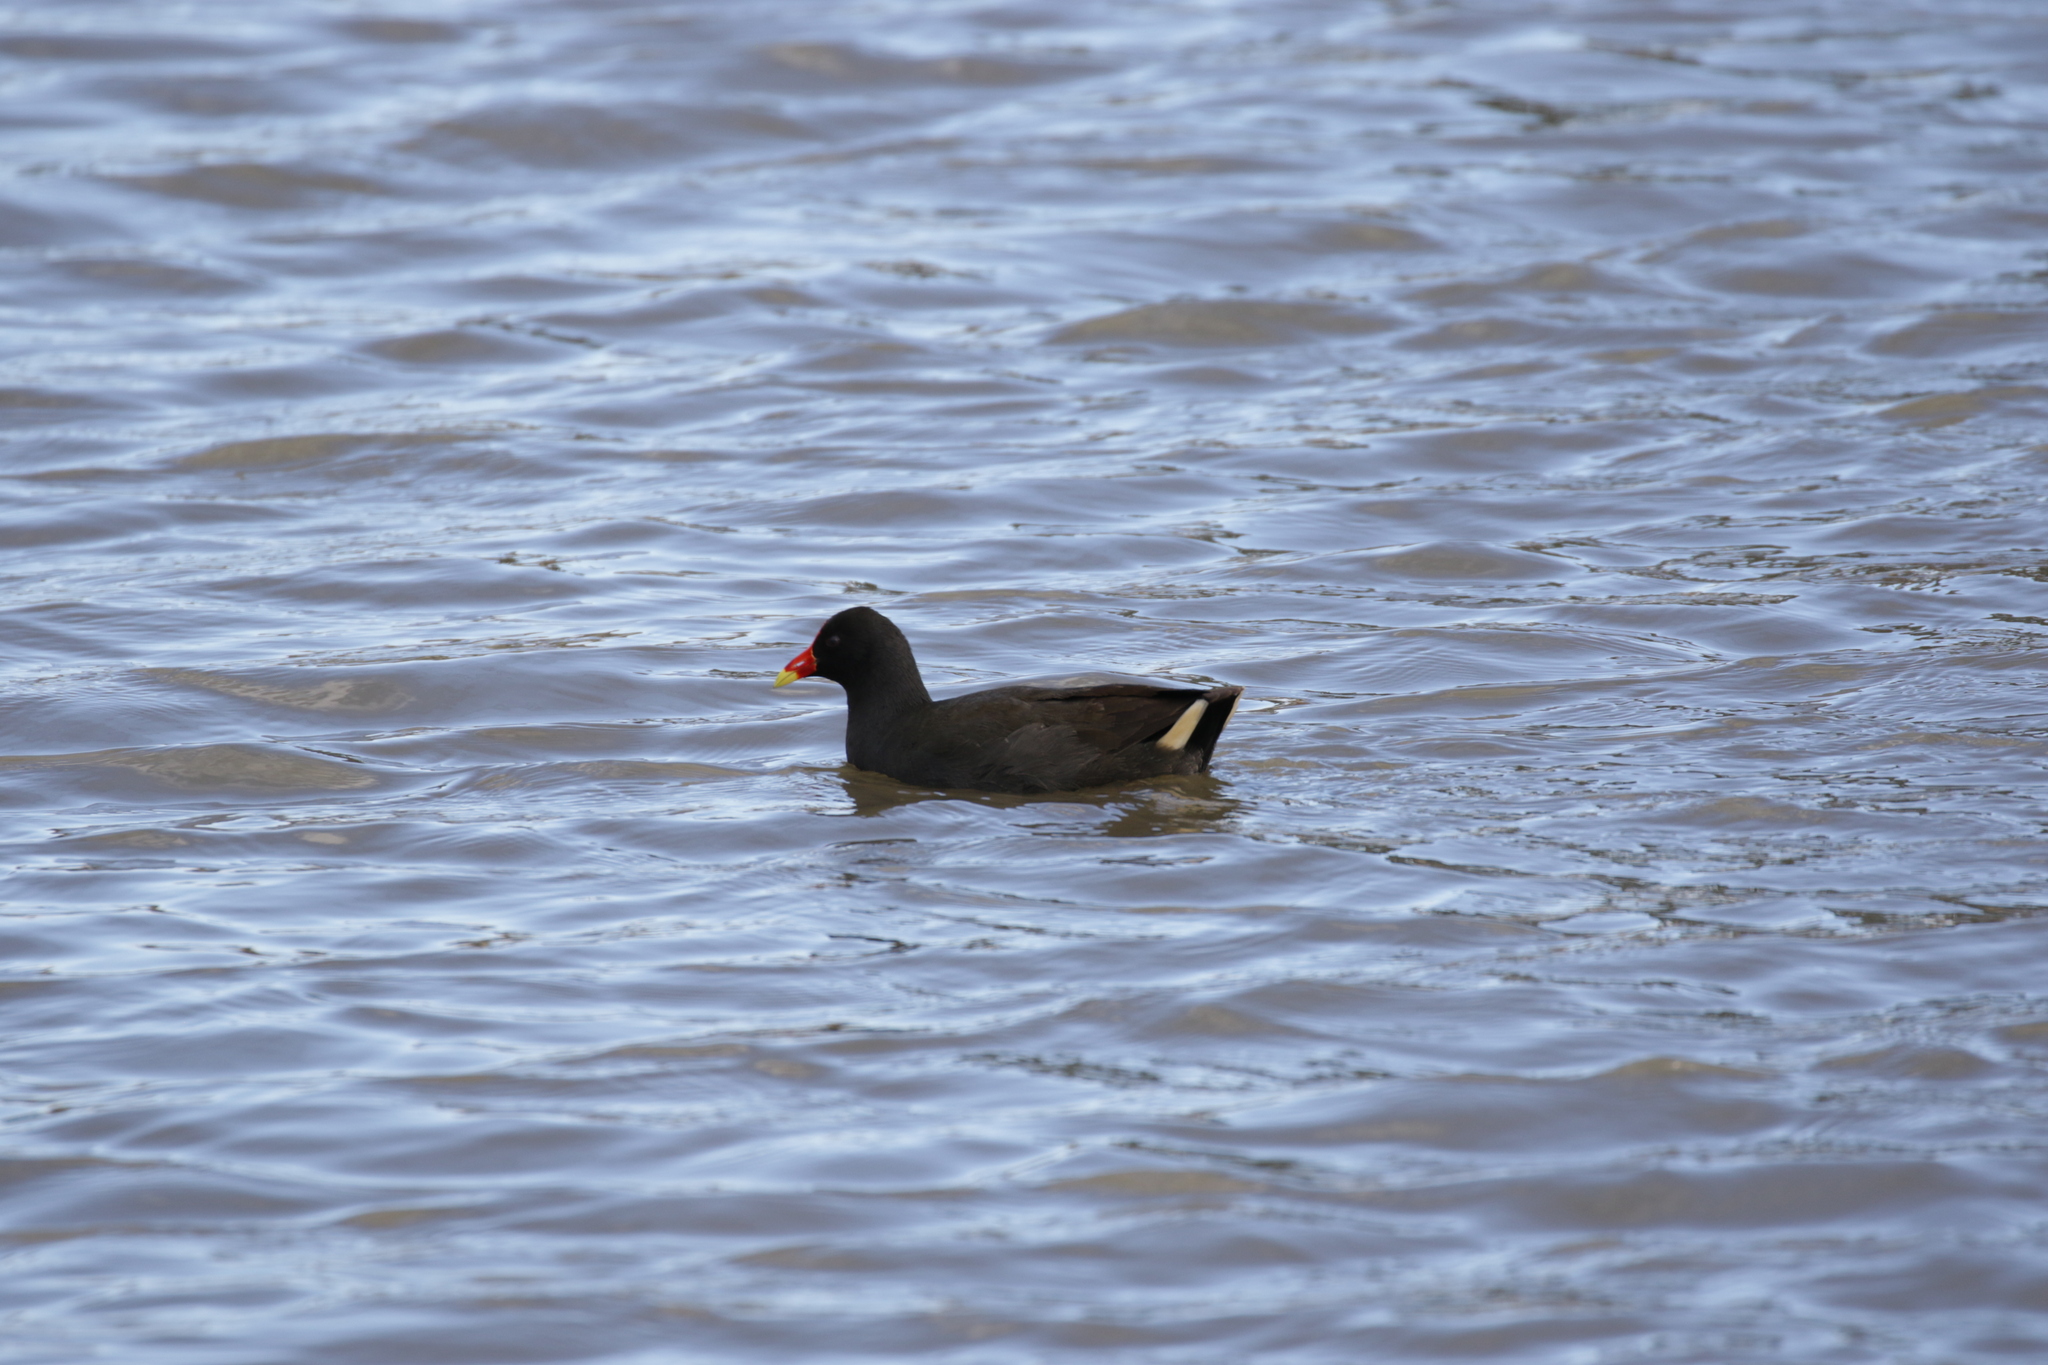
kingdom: Animalia
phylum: Chordata
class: Aves
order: Gruiformes
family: Rallidae
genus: Gallinula
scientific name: Gallinula tenebrosa
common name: Dusky moorhen
